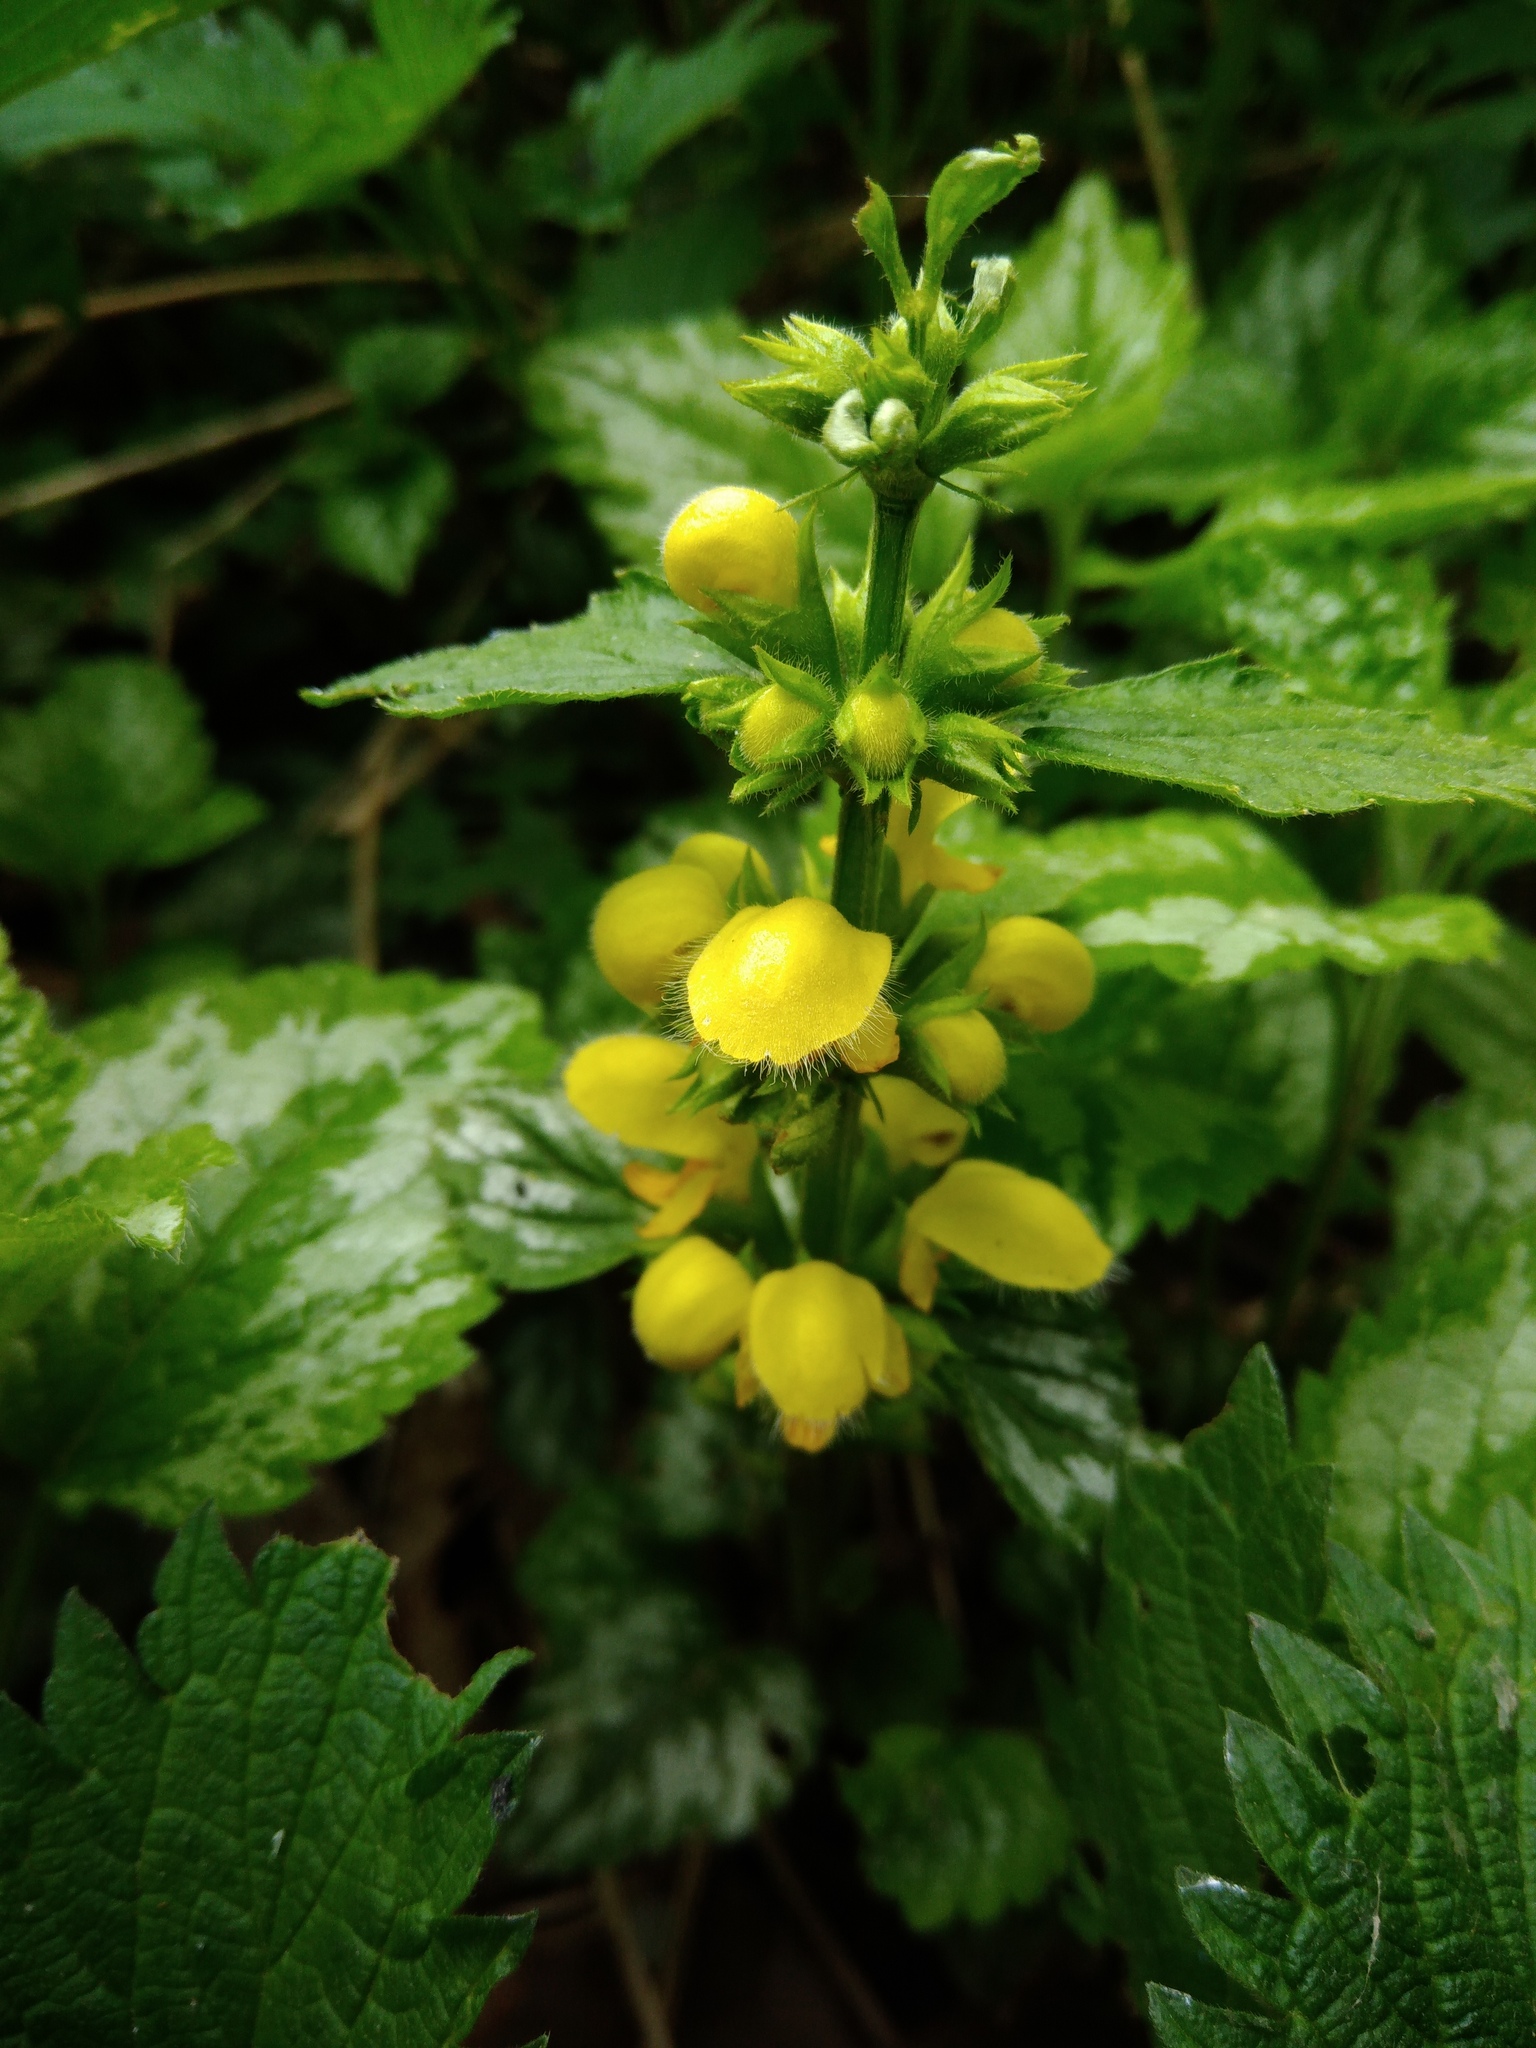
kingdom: Plantae
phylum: Tracheophyta
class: Magnoliopsida
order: Lamiales
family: Lamiaceae
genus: Lamium
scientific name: Lamium galeobdolon
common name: Yellow archangel
